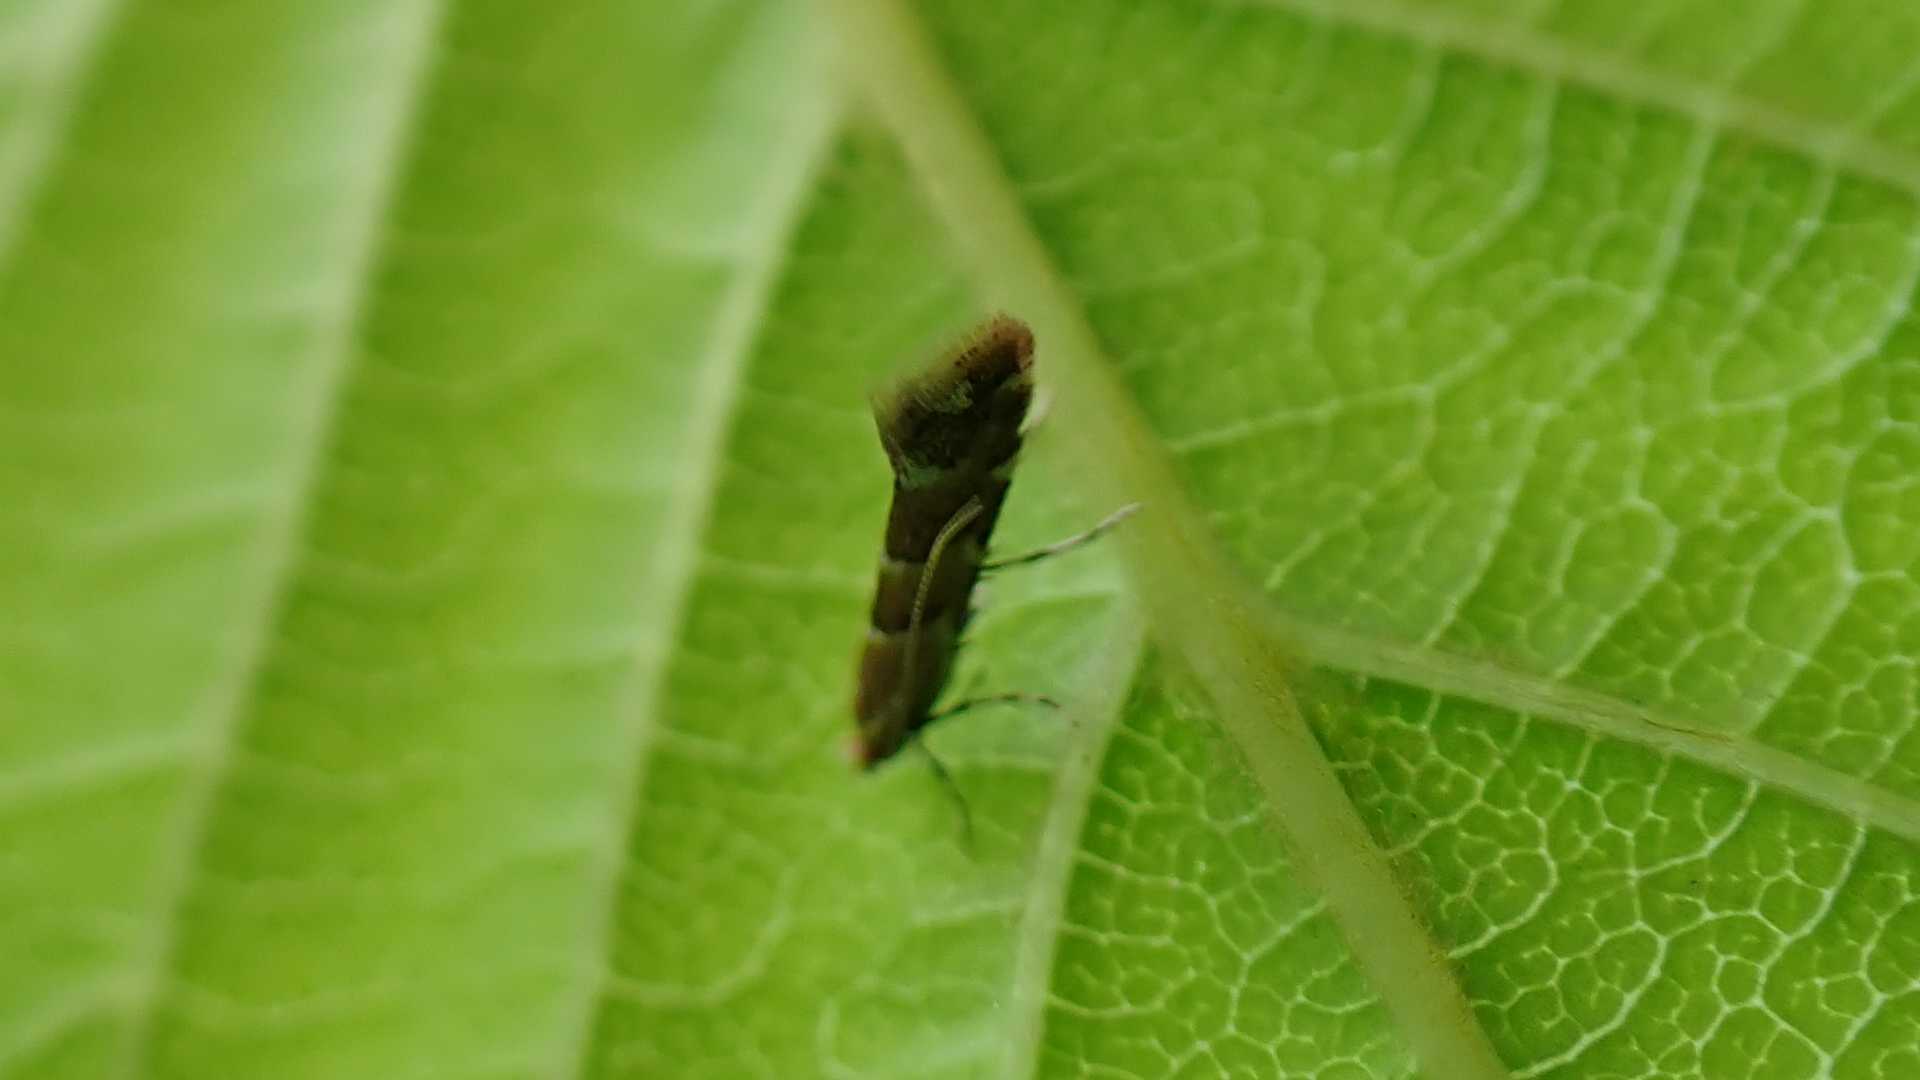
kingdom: Animalia
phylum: Arthropoda
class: Insecta
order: Lepidoptera
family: Gracillariidae
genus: Cameraria
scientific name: Cameraria ohridella
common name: Horse-chestnut leaf-miner
